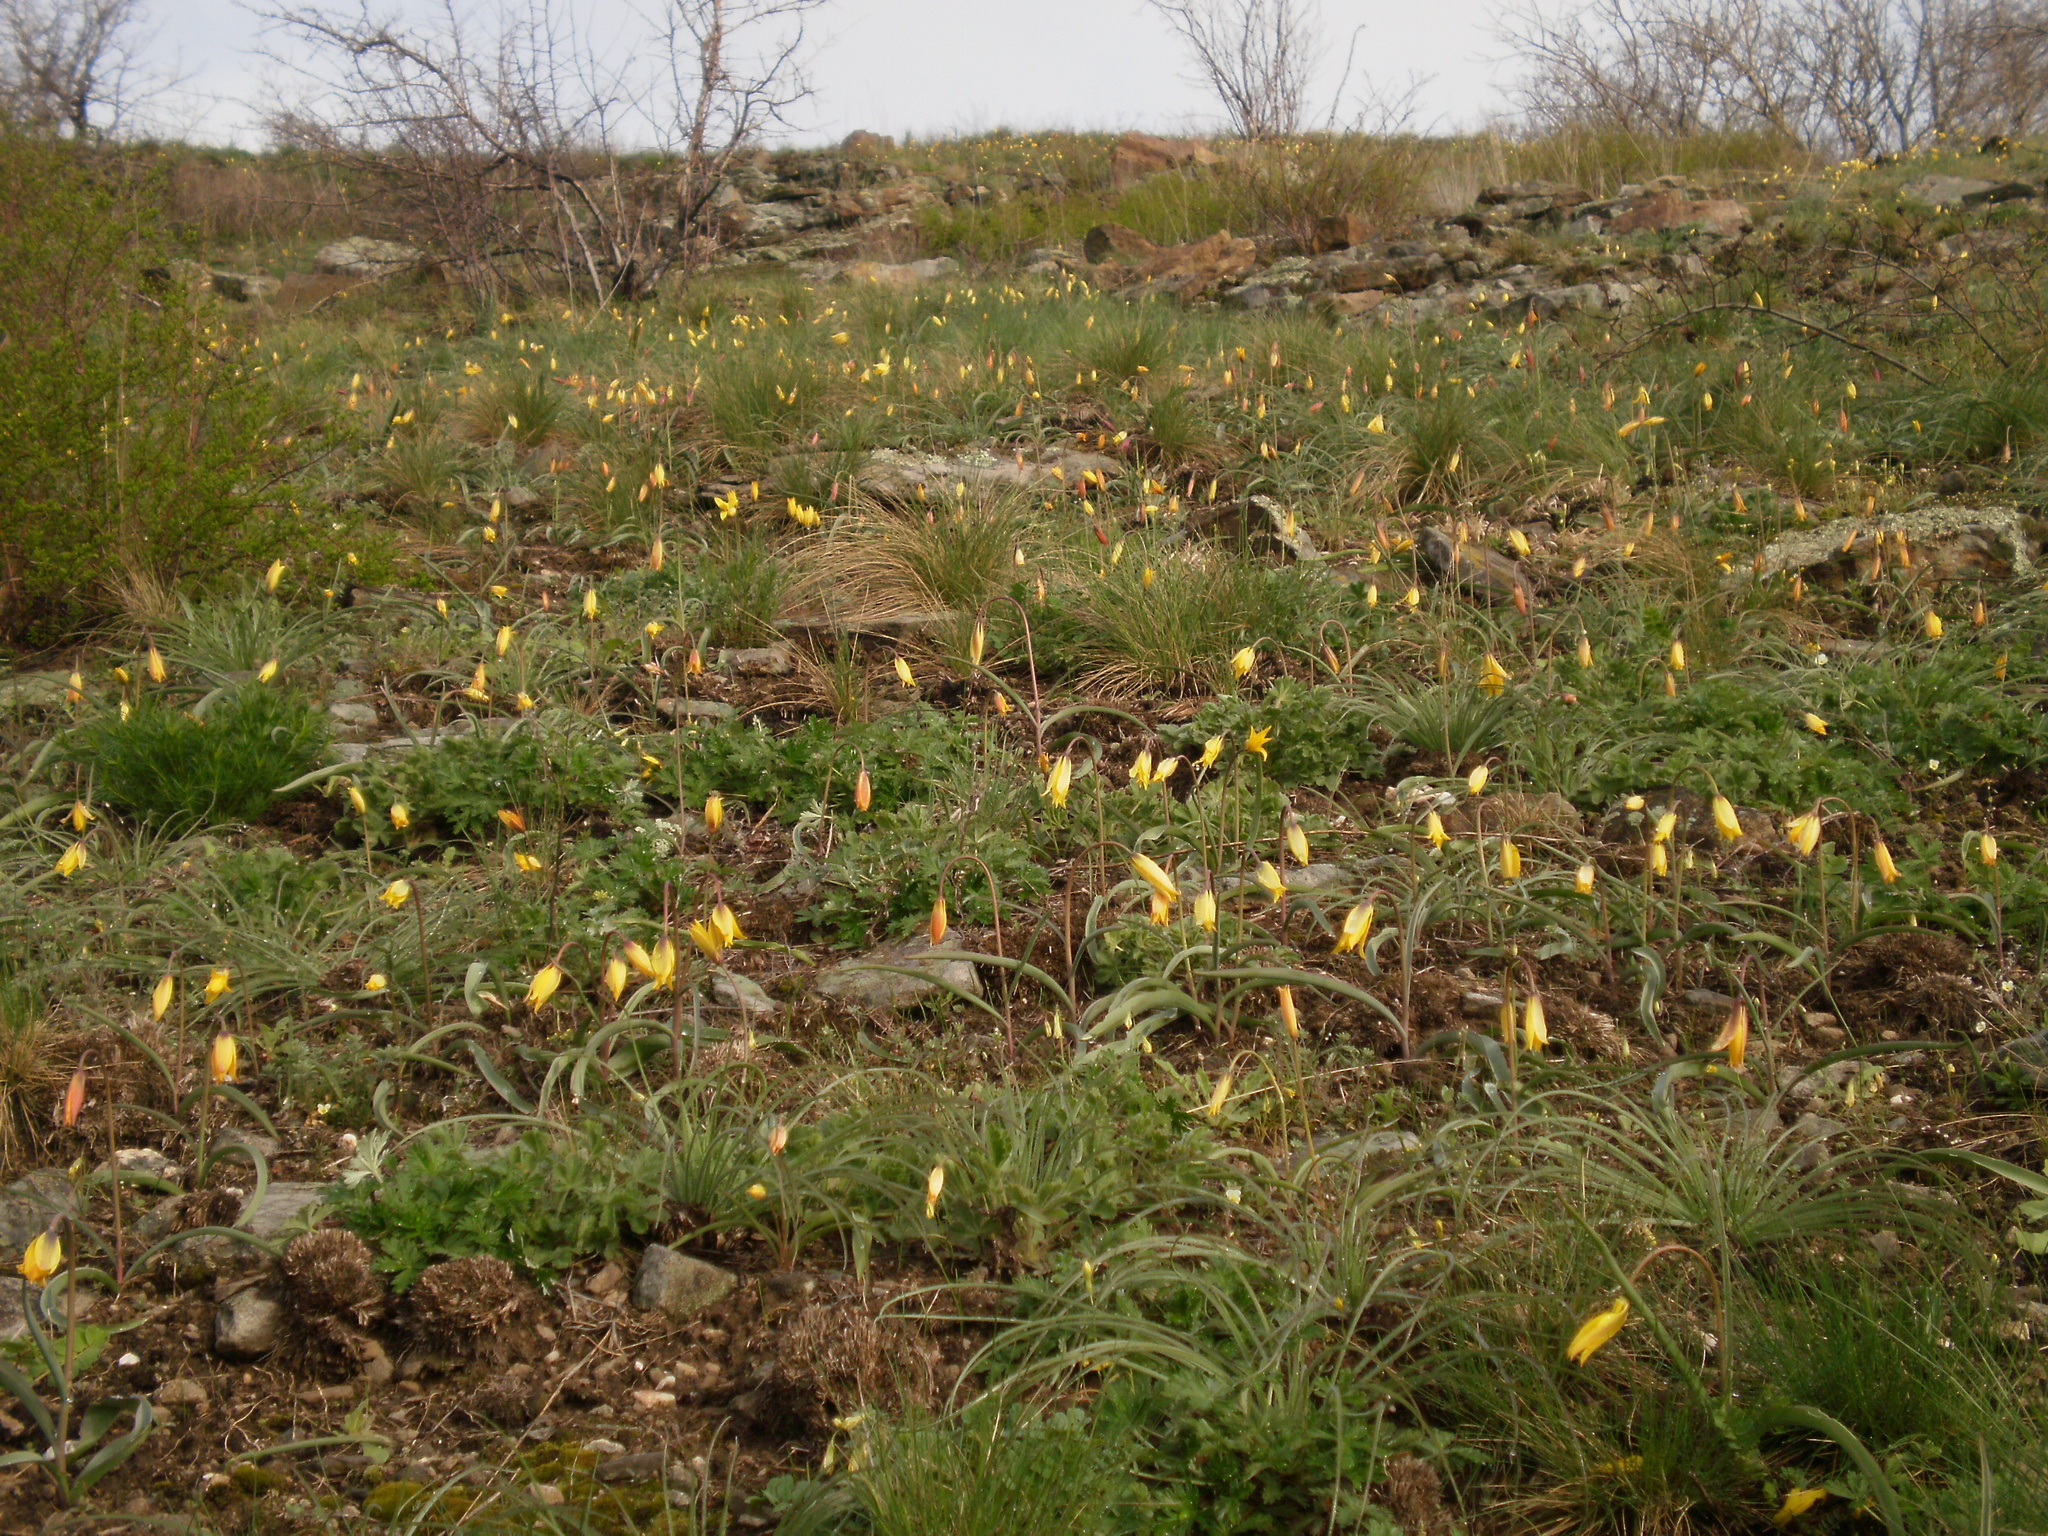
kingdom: Plantae
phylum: Tracheophyta
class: Liliopsida
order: Liliales
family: Liliaceae
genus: Tulipa
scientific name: Tulipa sylvestris
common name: Wild tulip
